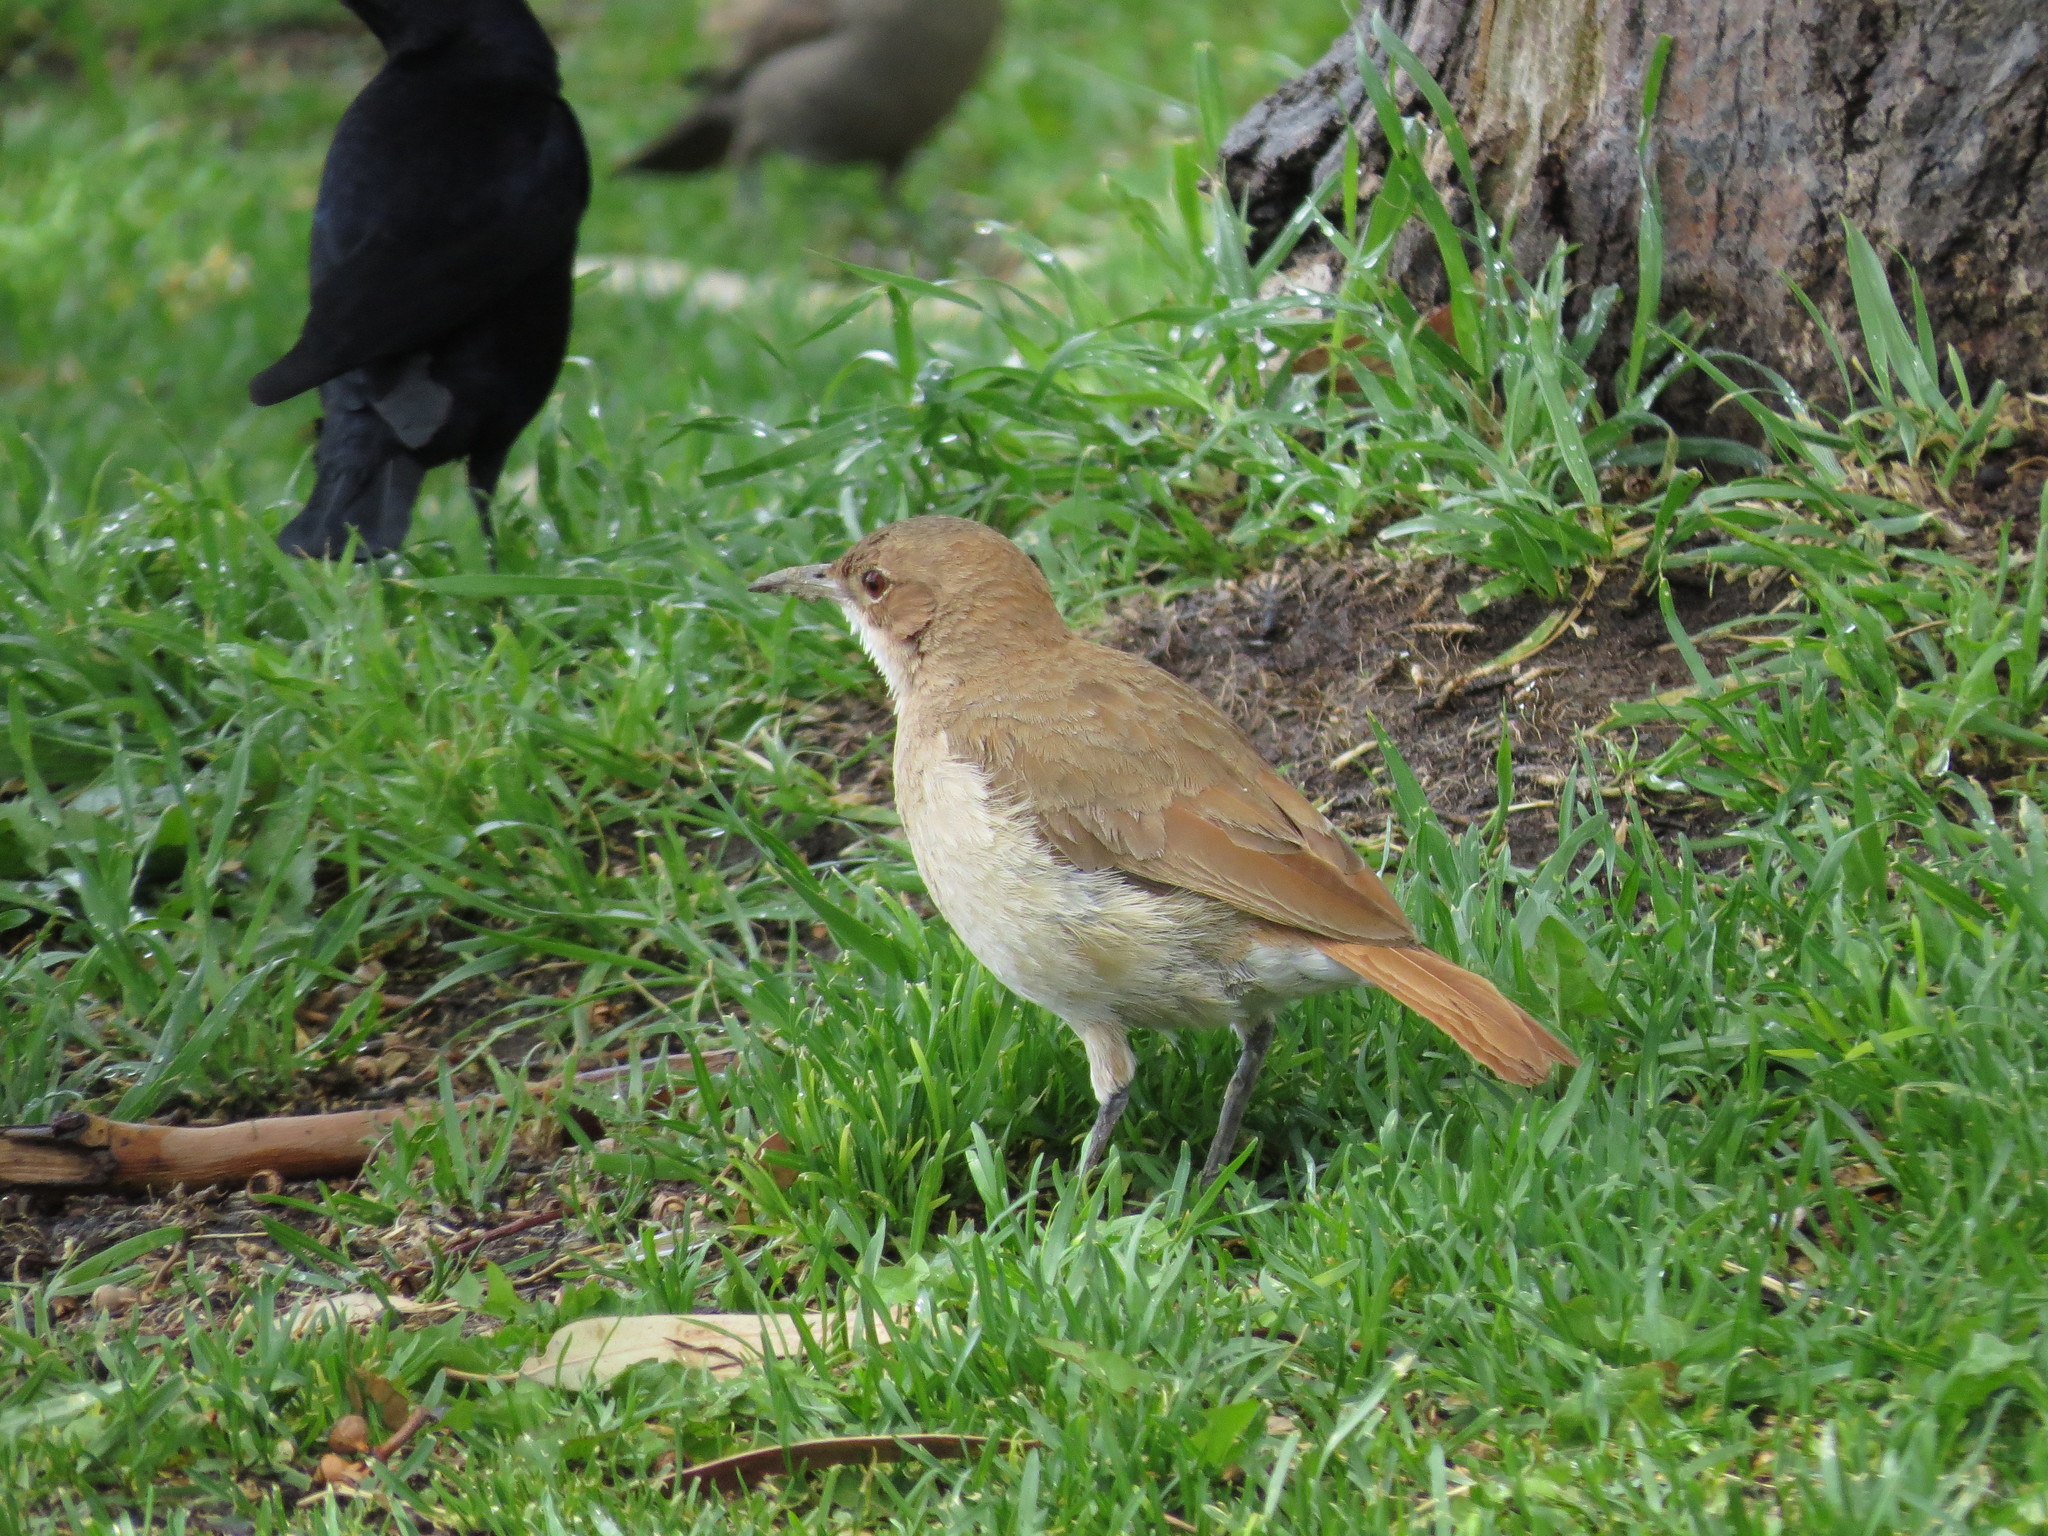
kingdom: Animalia
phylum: Chordata
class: Aves
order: Passeriformes
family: Furnariidae
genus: Furnarius
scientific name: Furnarius rufus
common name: Rufous hornero
